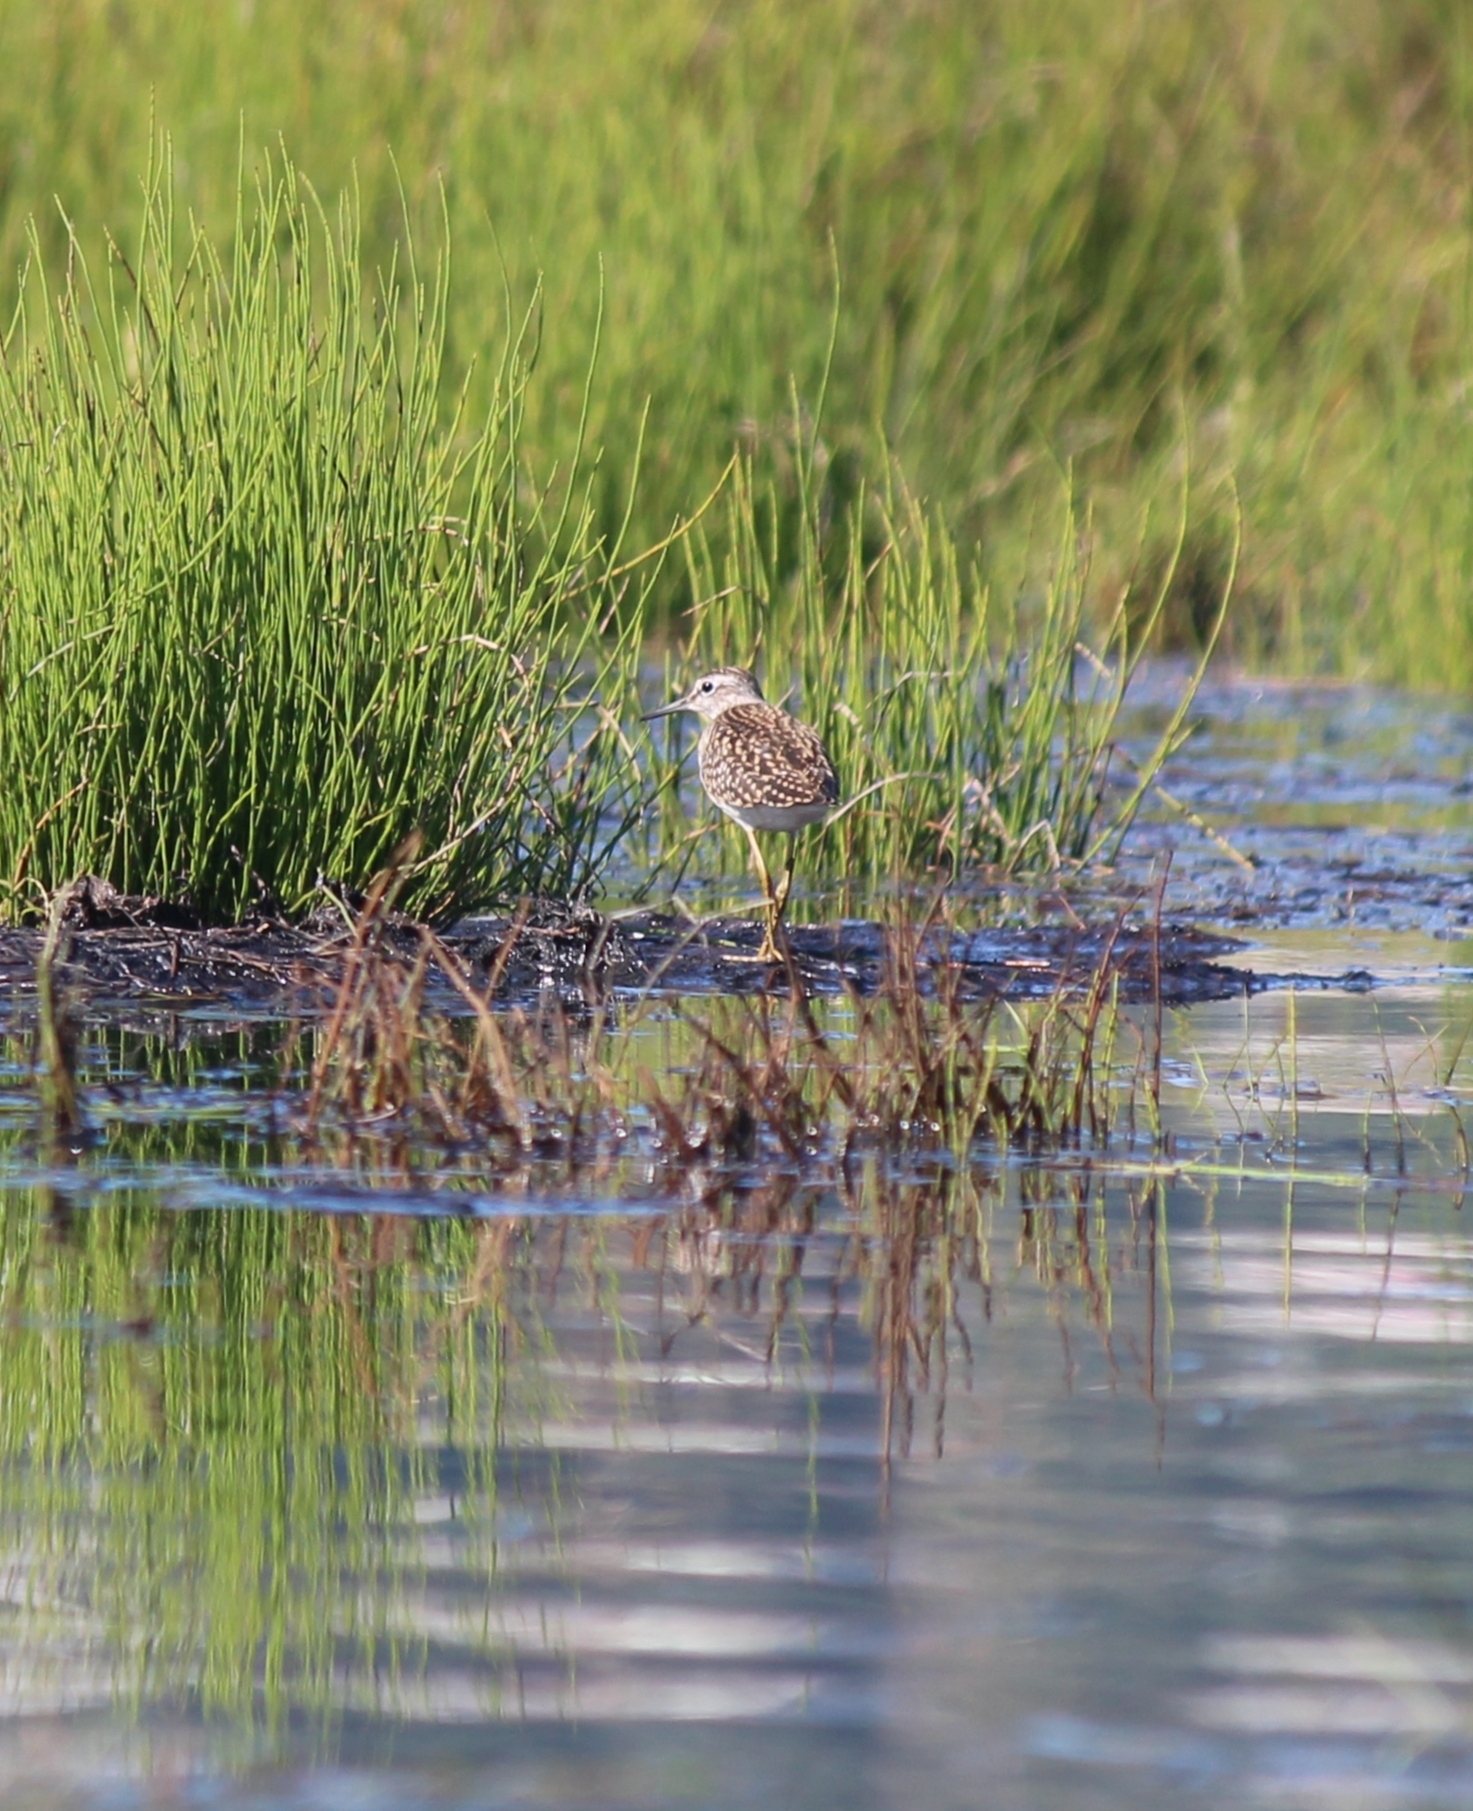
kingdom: Animalia
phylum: Chordata
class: Aves
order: Charadriiformes
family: Scolopacidae
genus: Tringa
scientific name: Tringa glareola
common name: Wood sandpiper
